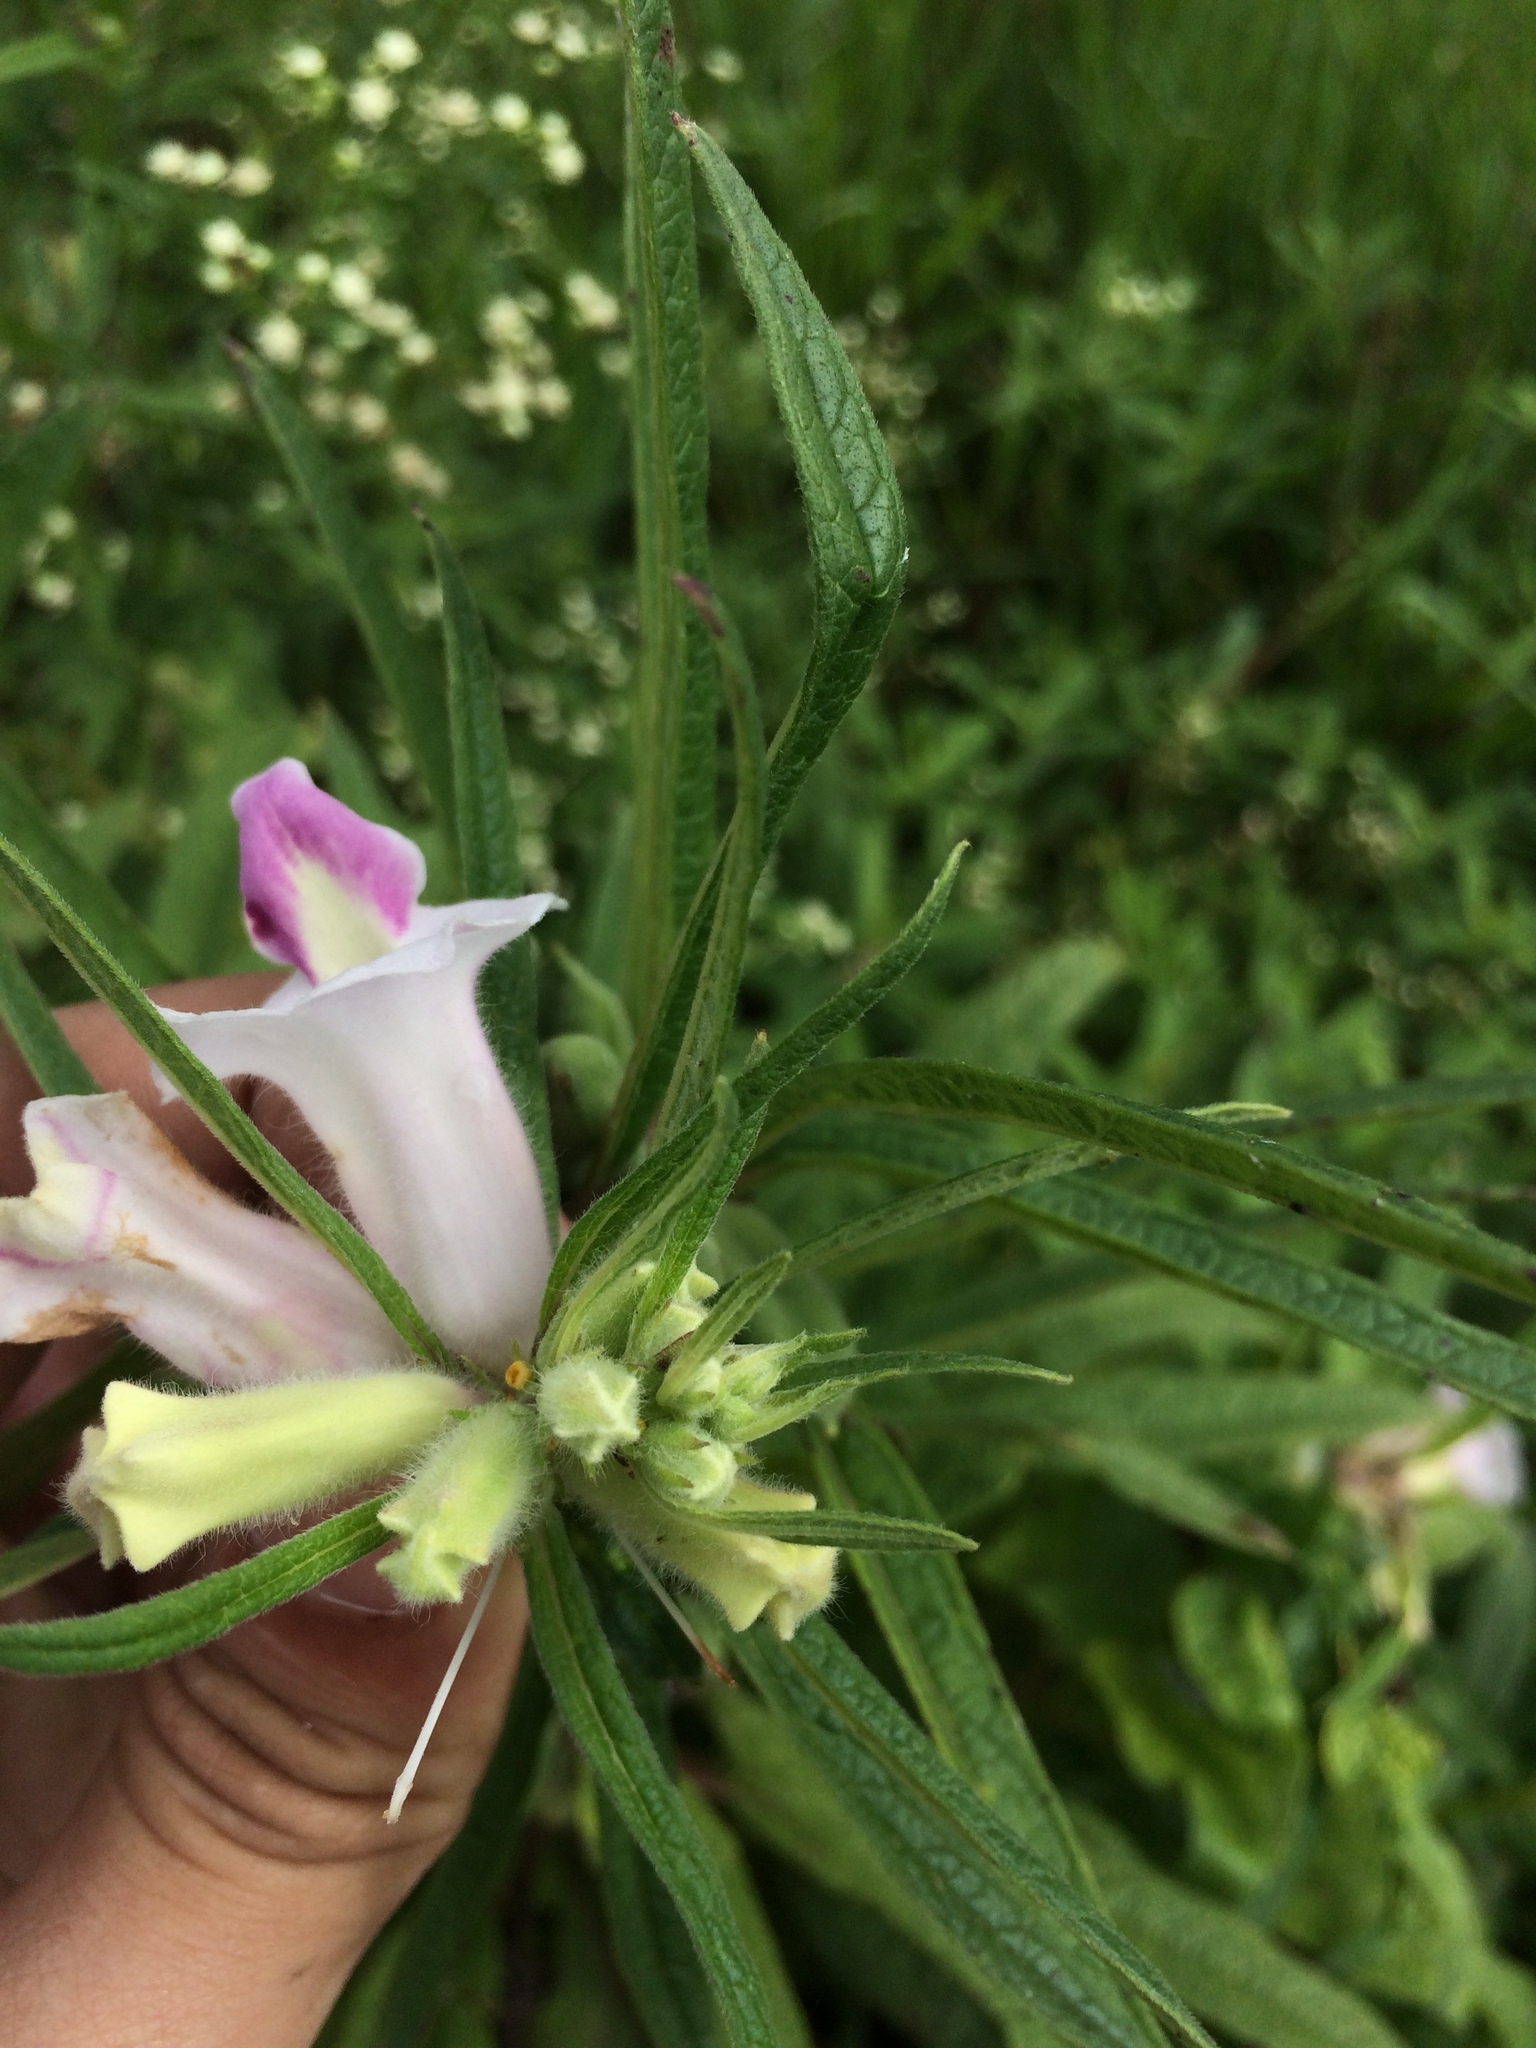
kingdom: Plantae
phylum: Tracheophyta
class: Magnoliopsida
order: Lamiales
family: Pedaliaceae
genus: Sesamum
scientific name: Sesamum indicum
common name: Sesame
